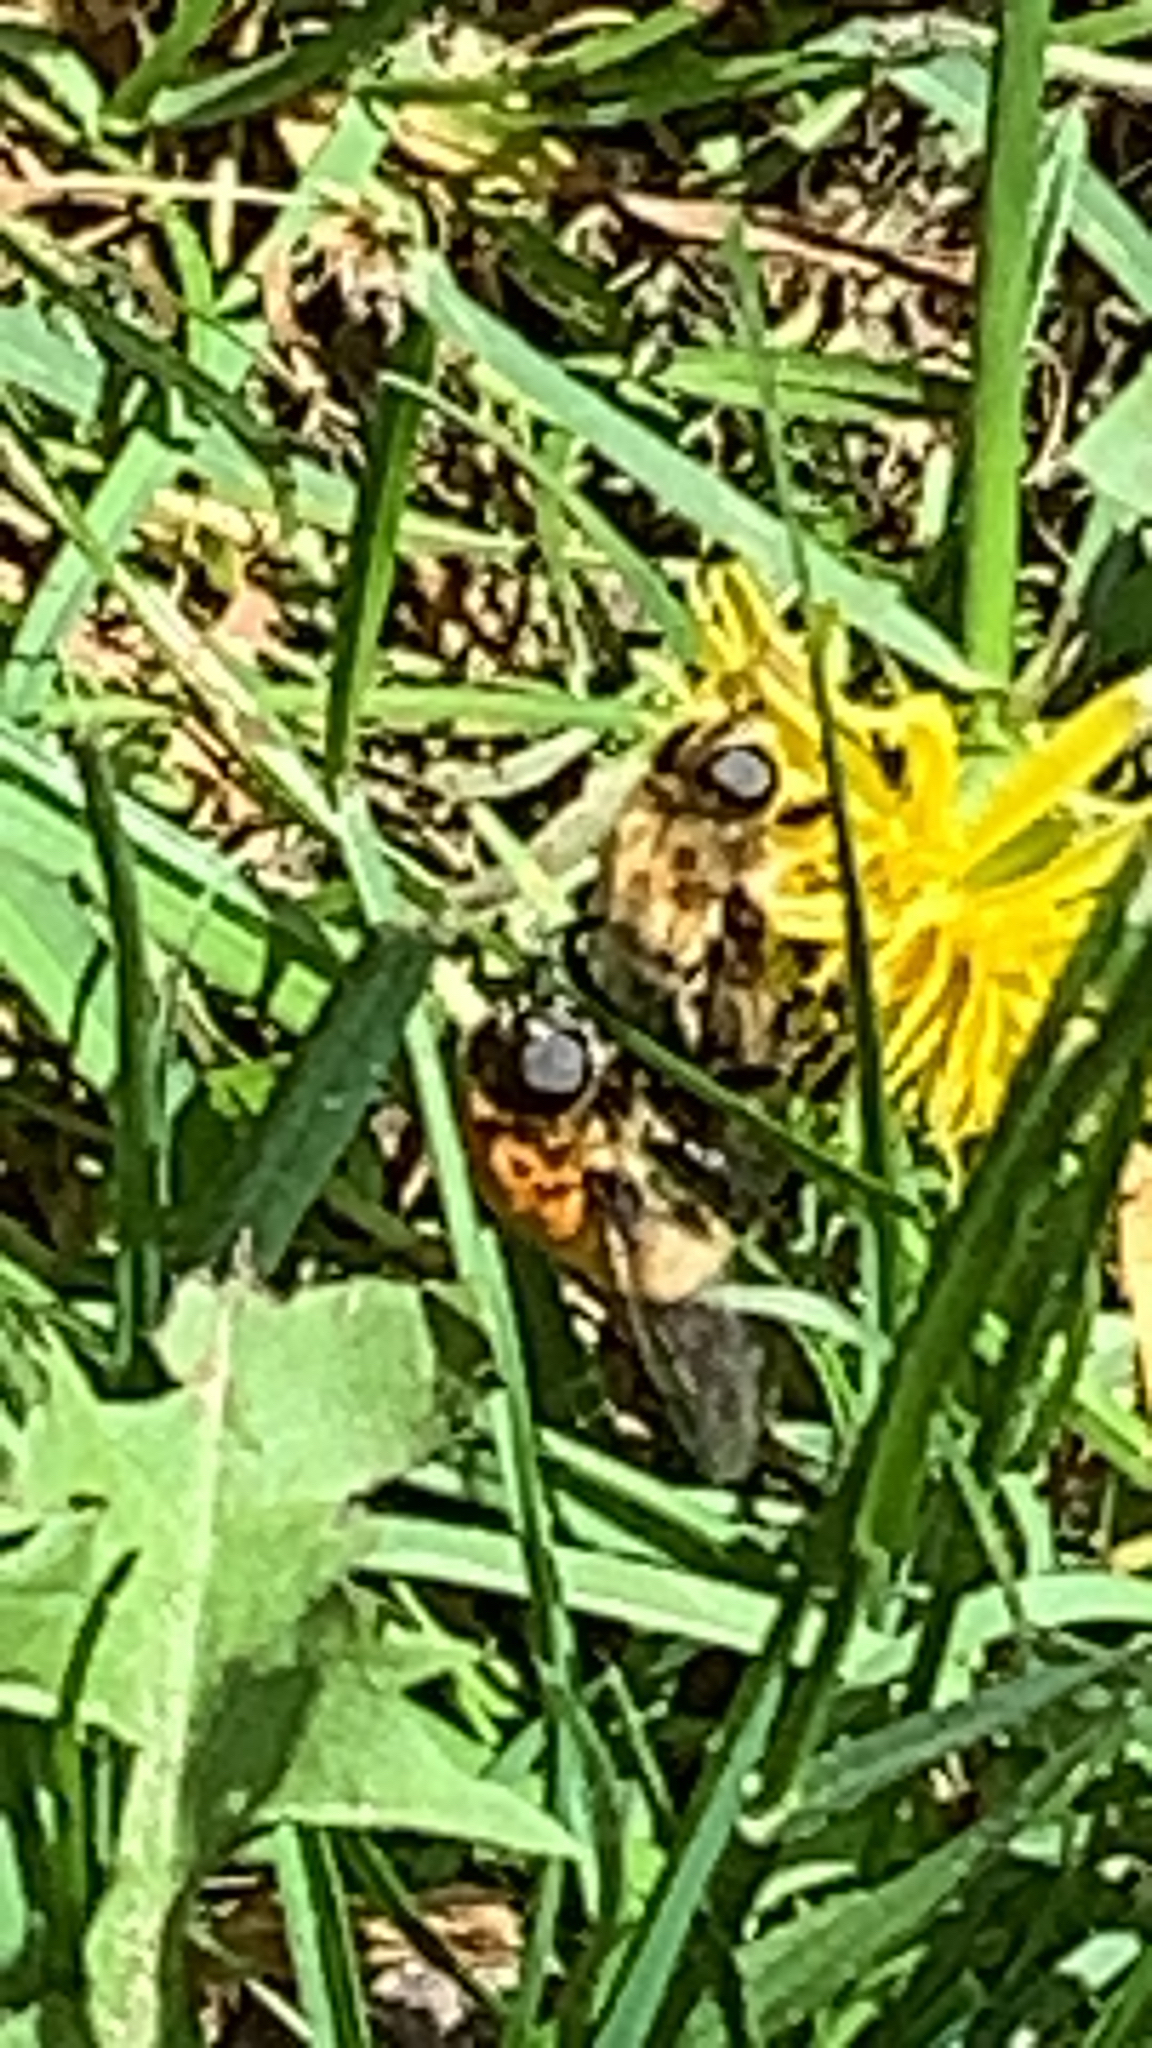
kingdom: Animalia
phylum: Arthropoda
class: Insecta
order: Diptera
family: Syrphidae
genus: Merodon
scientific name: Merodon equestris
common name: Greater bulb-fly
